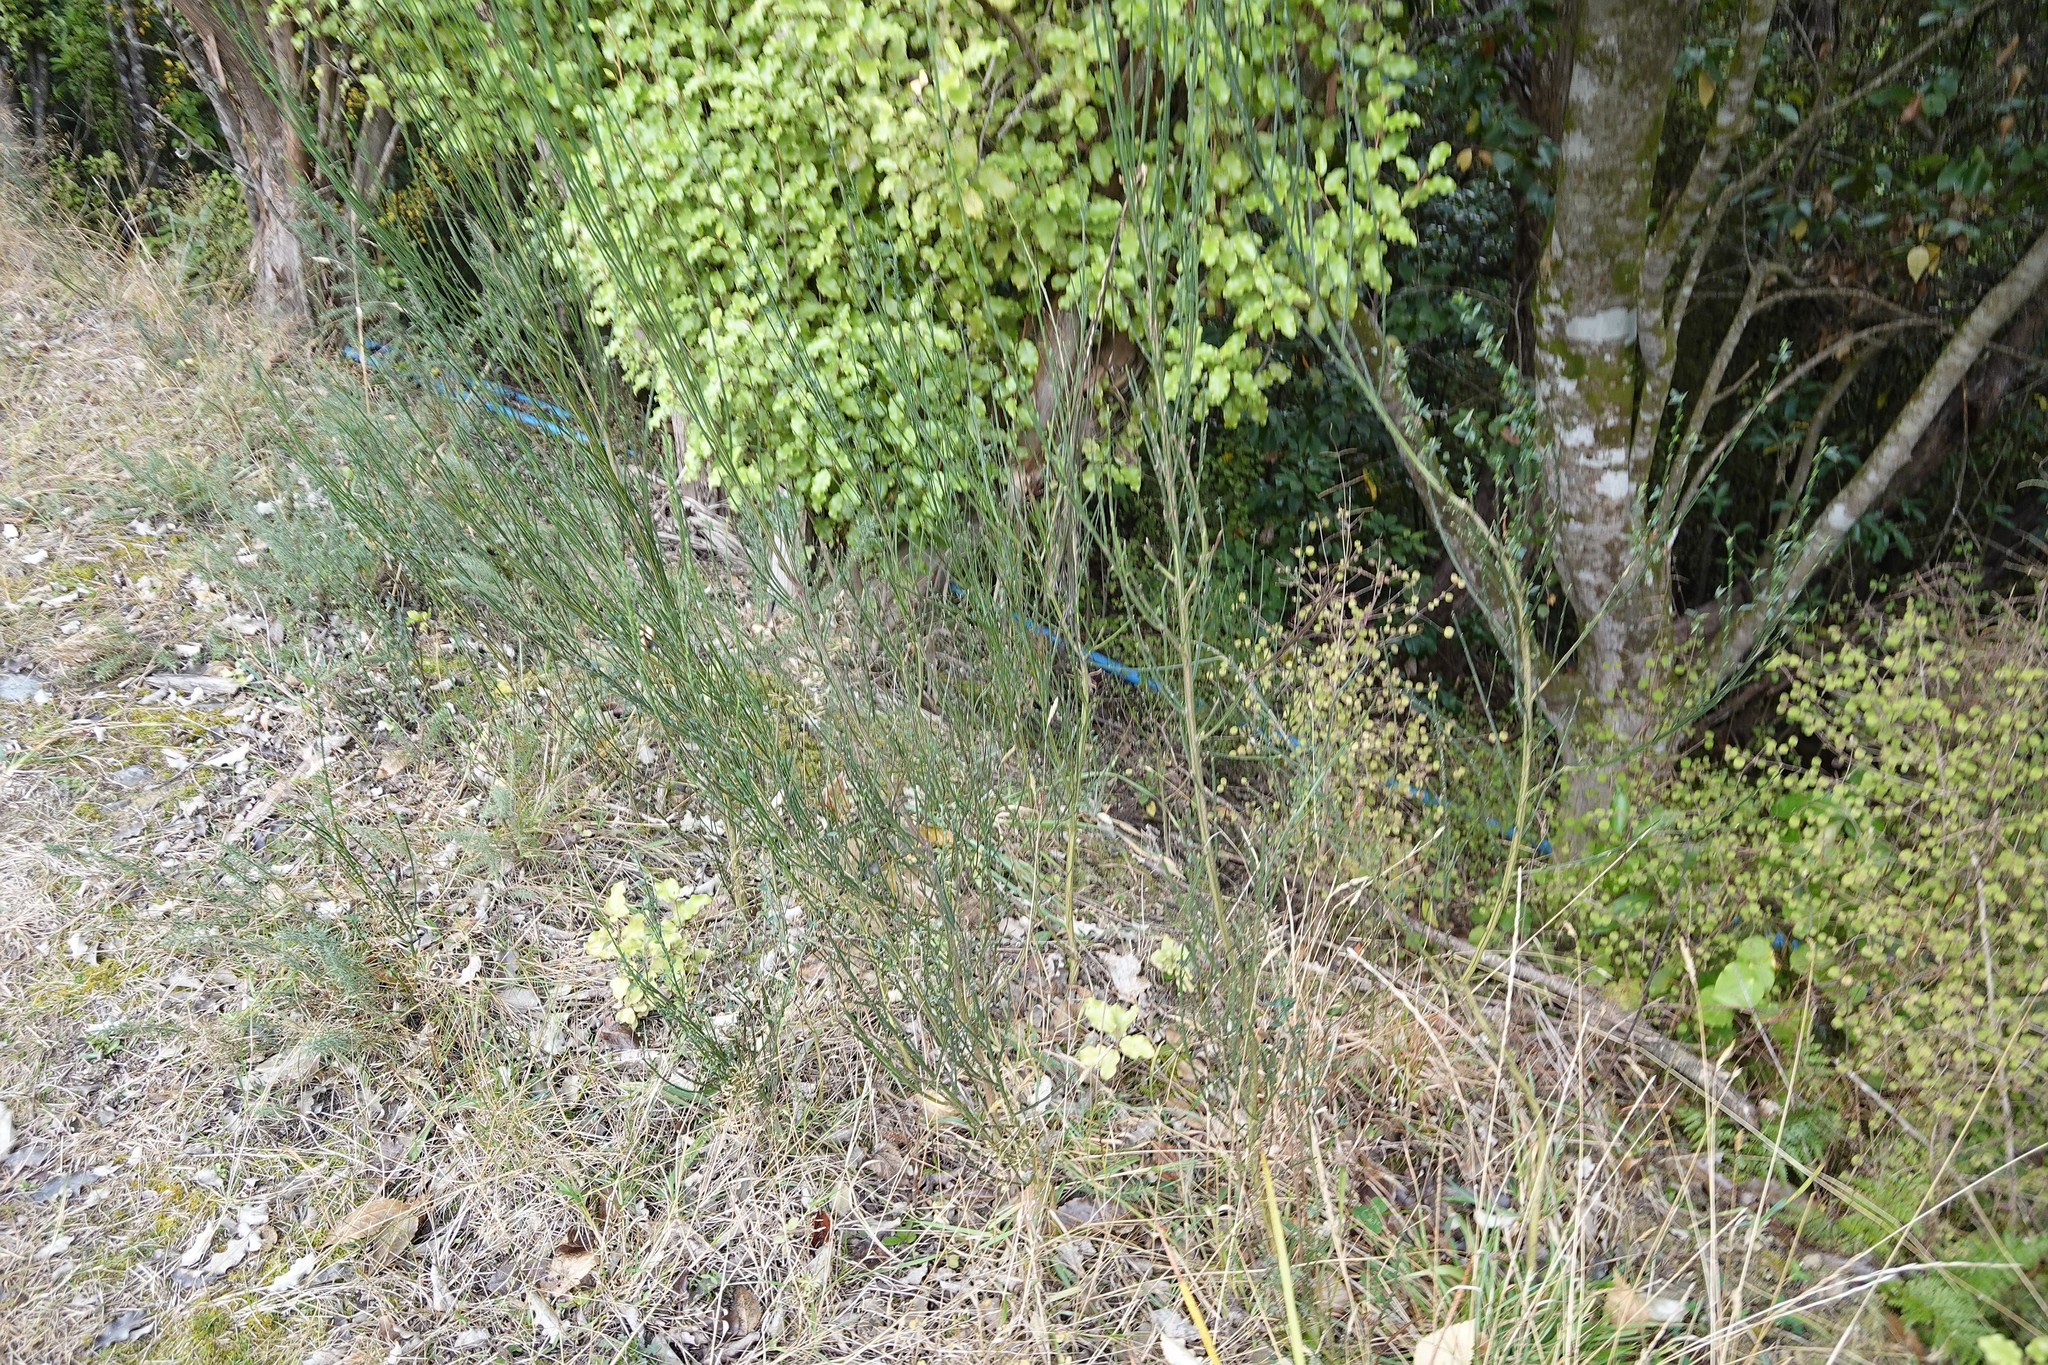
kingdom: Plantae
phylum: Tracheophyta
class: Magnoliopsida
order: Fabales
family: Fabaceae
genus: Cytisus
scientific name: Cytisus scoparius
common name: Scotch broom
